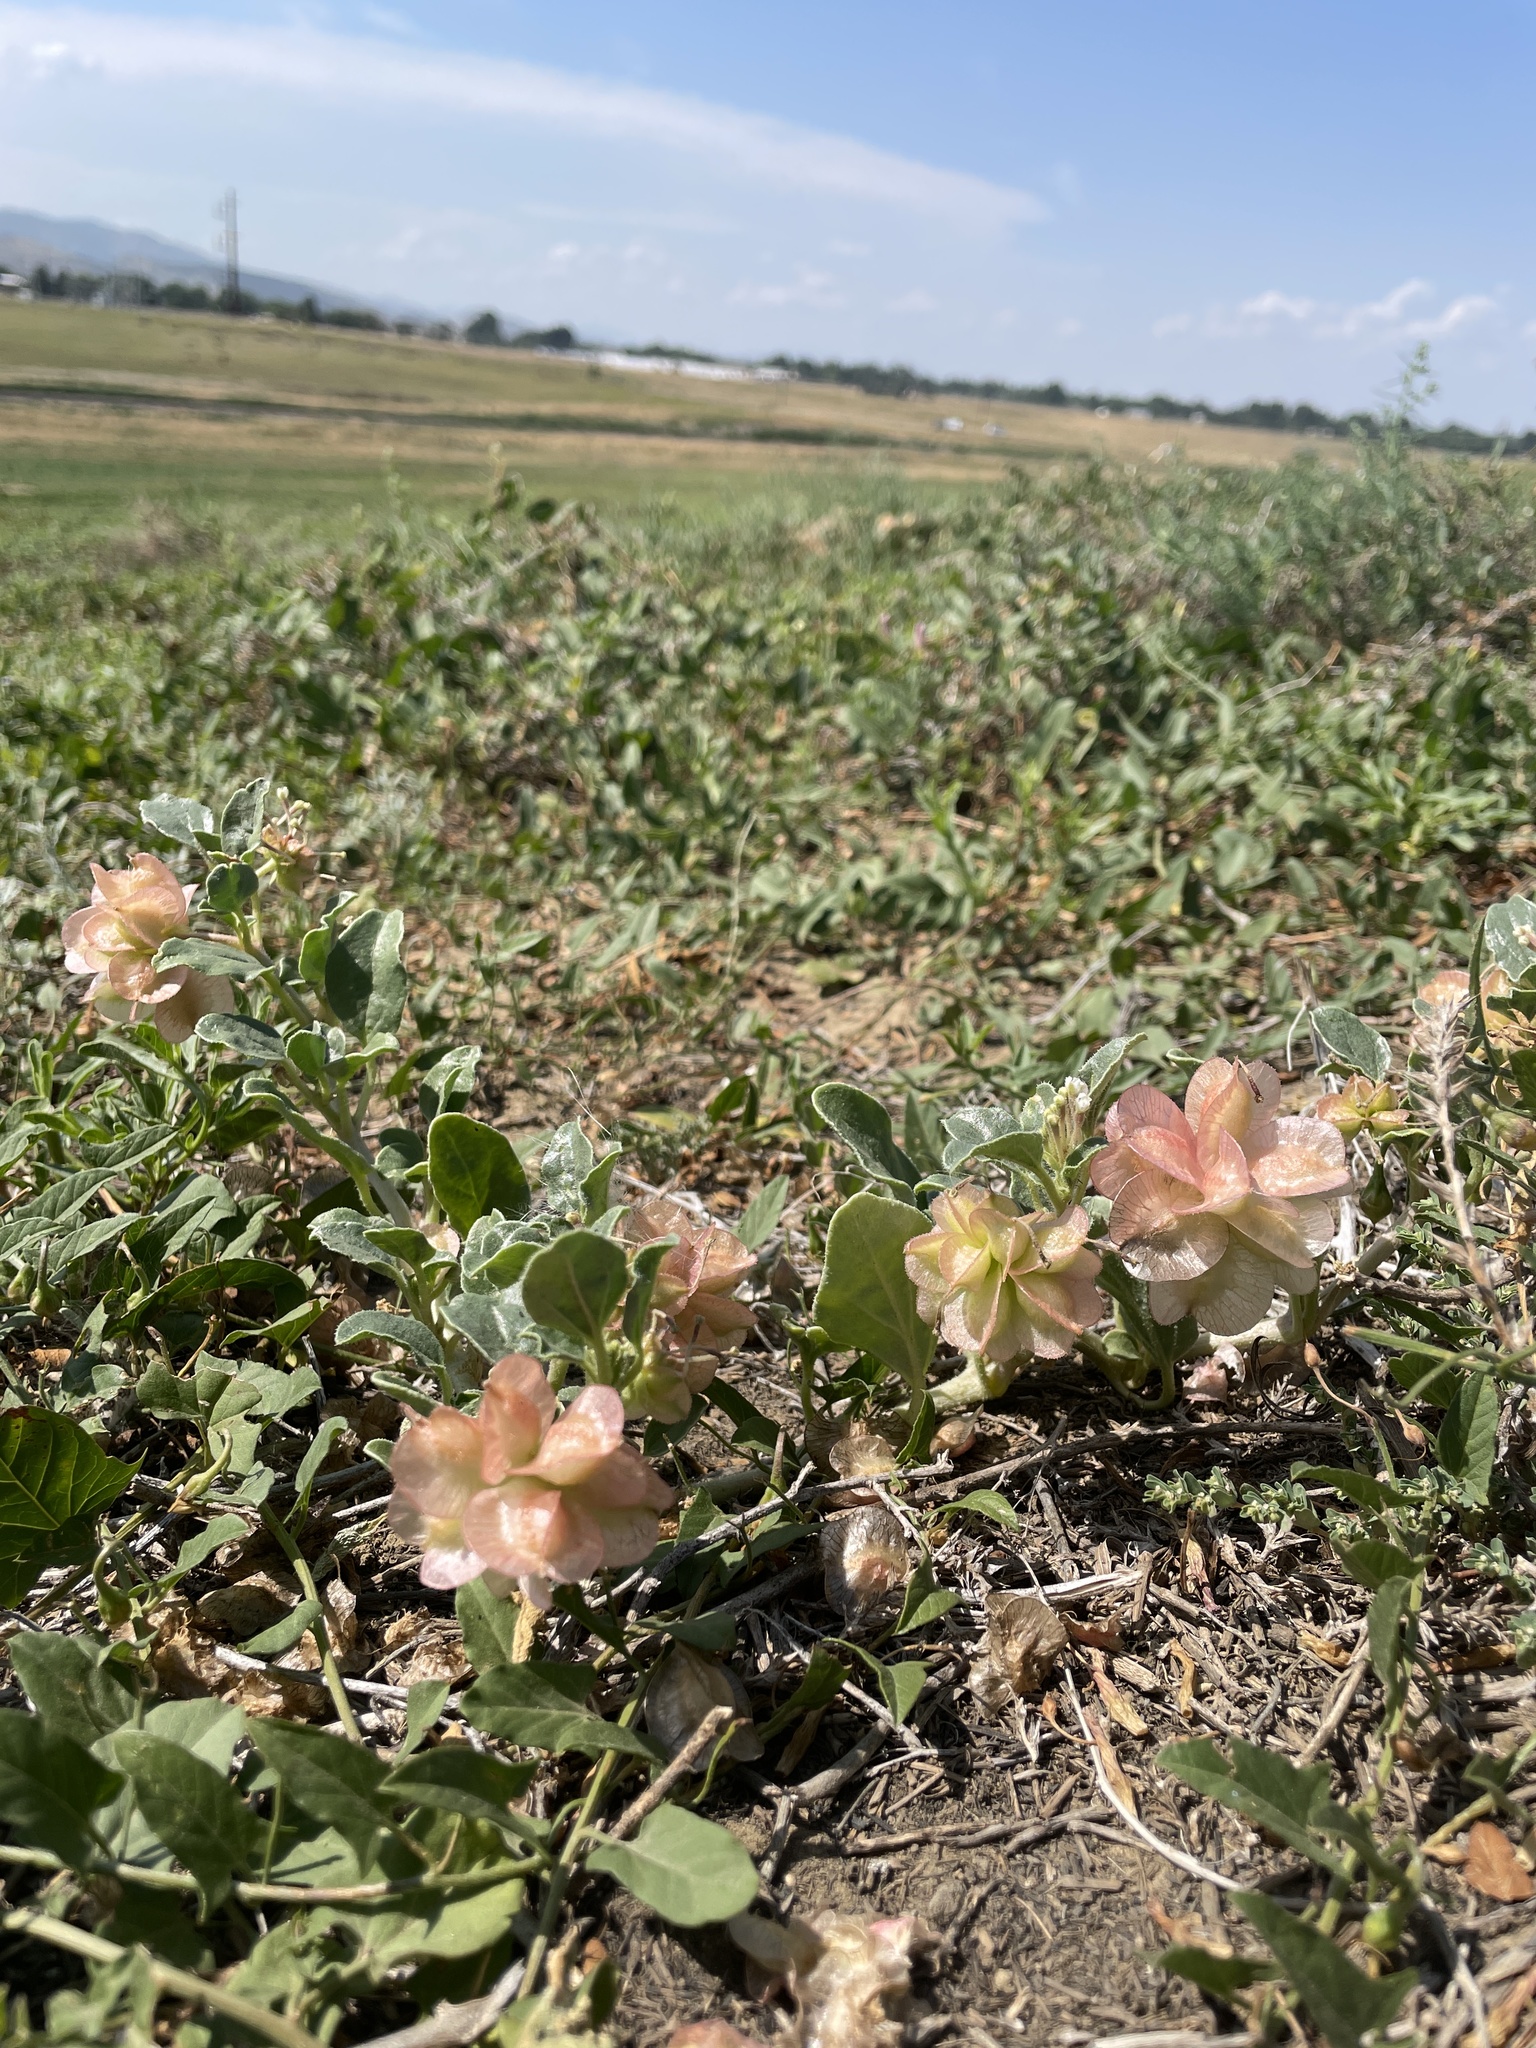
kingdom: Plantae
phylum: Tracheophyta
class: Magnoliopsida
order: Caryophyllales
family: Nyctaginaceae
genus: Tripterocalyx
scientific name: Tripterocalyx micranthus
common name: Small-flowered sand-verbena
